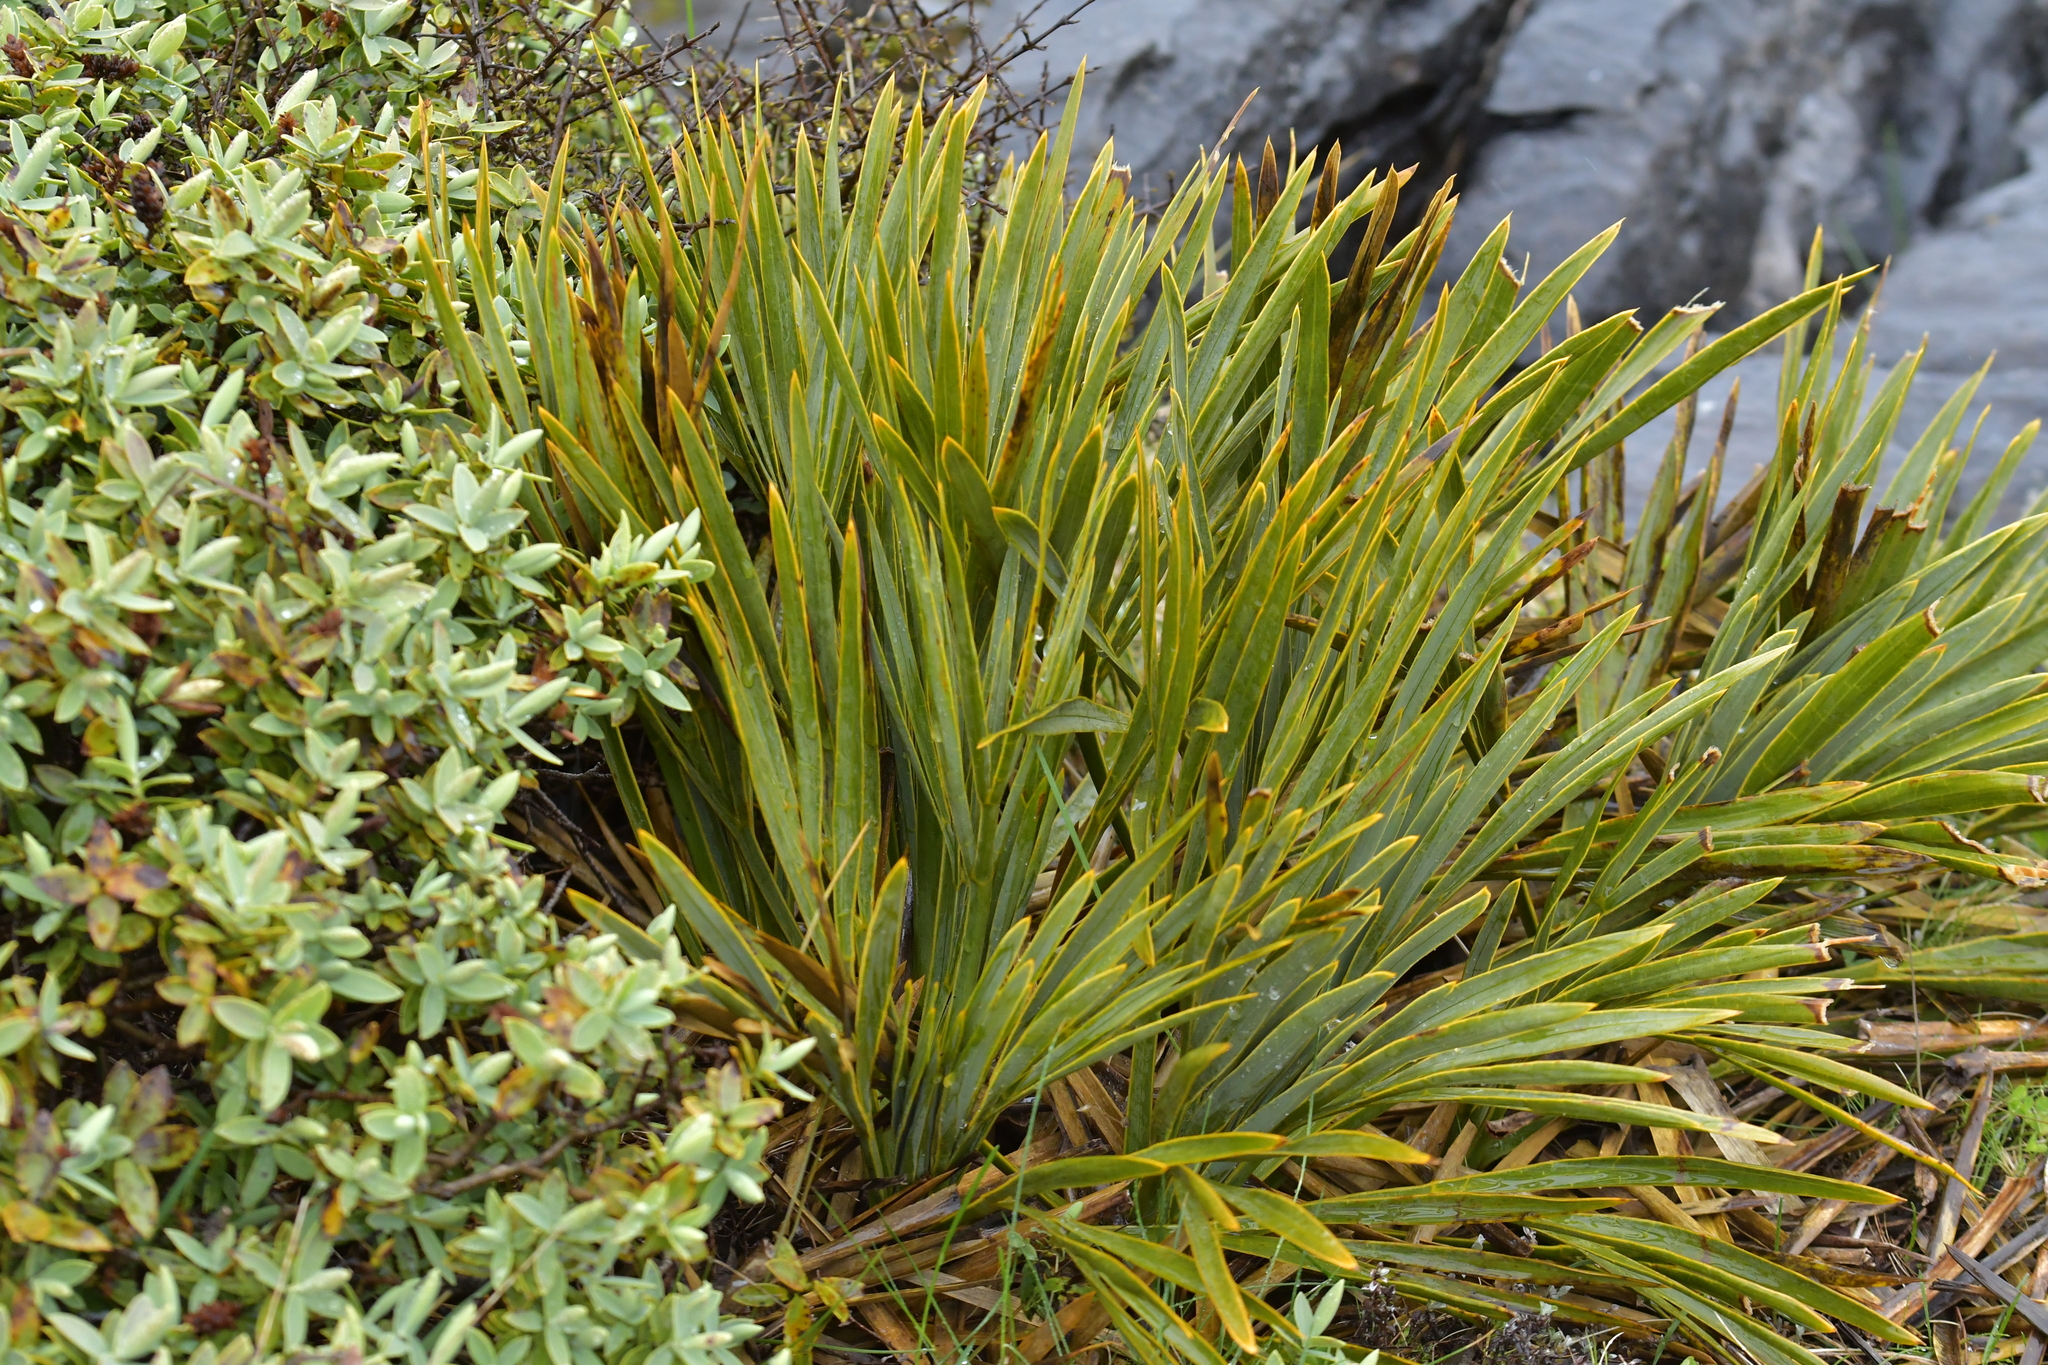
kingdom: Plantae
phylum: Tracheophyta
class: Magnoliopsida
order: Apiales
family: Apiaceae
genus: Aciphylla
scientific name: Aciphylla ferox
